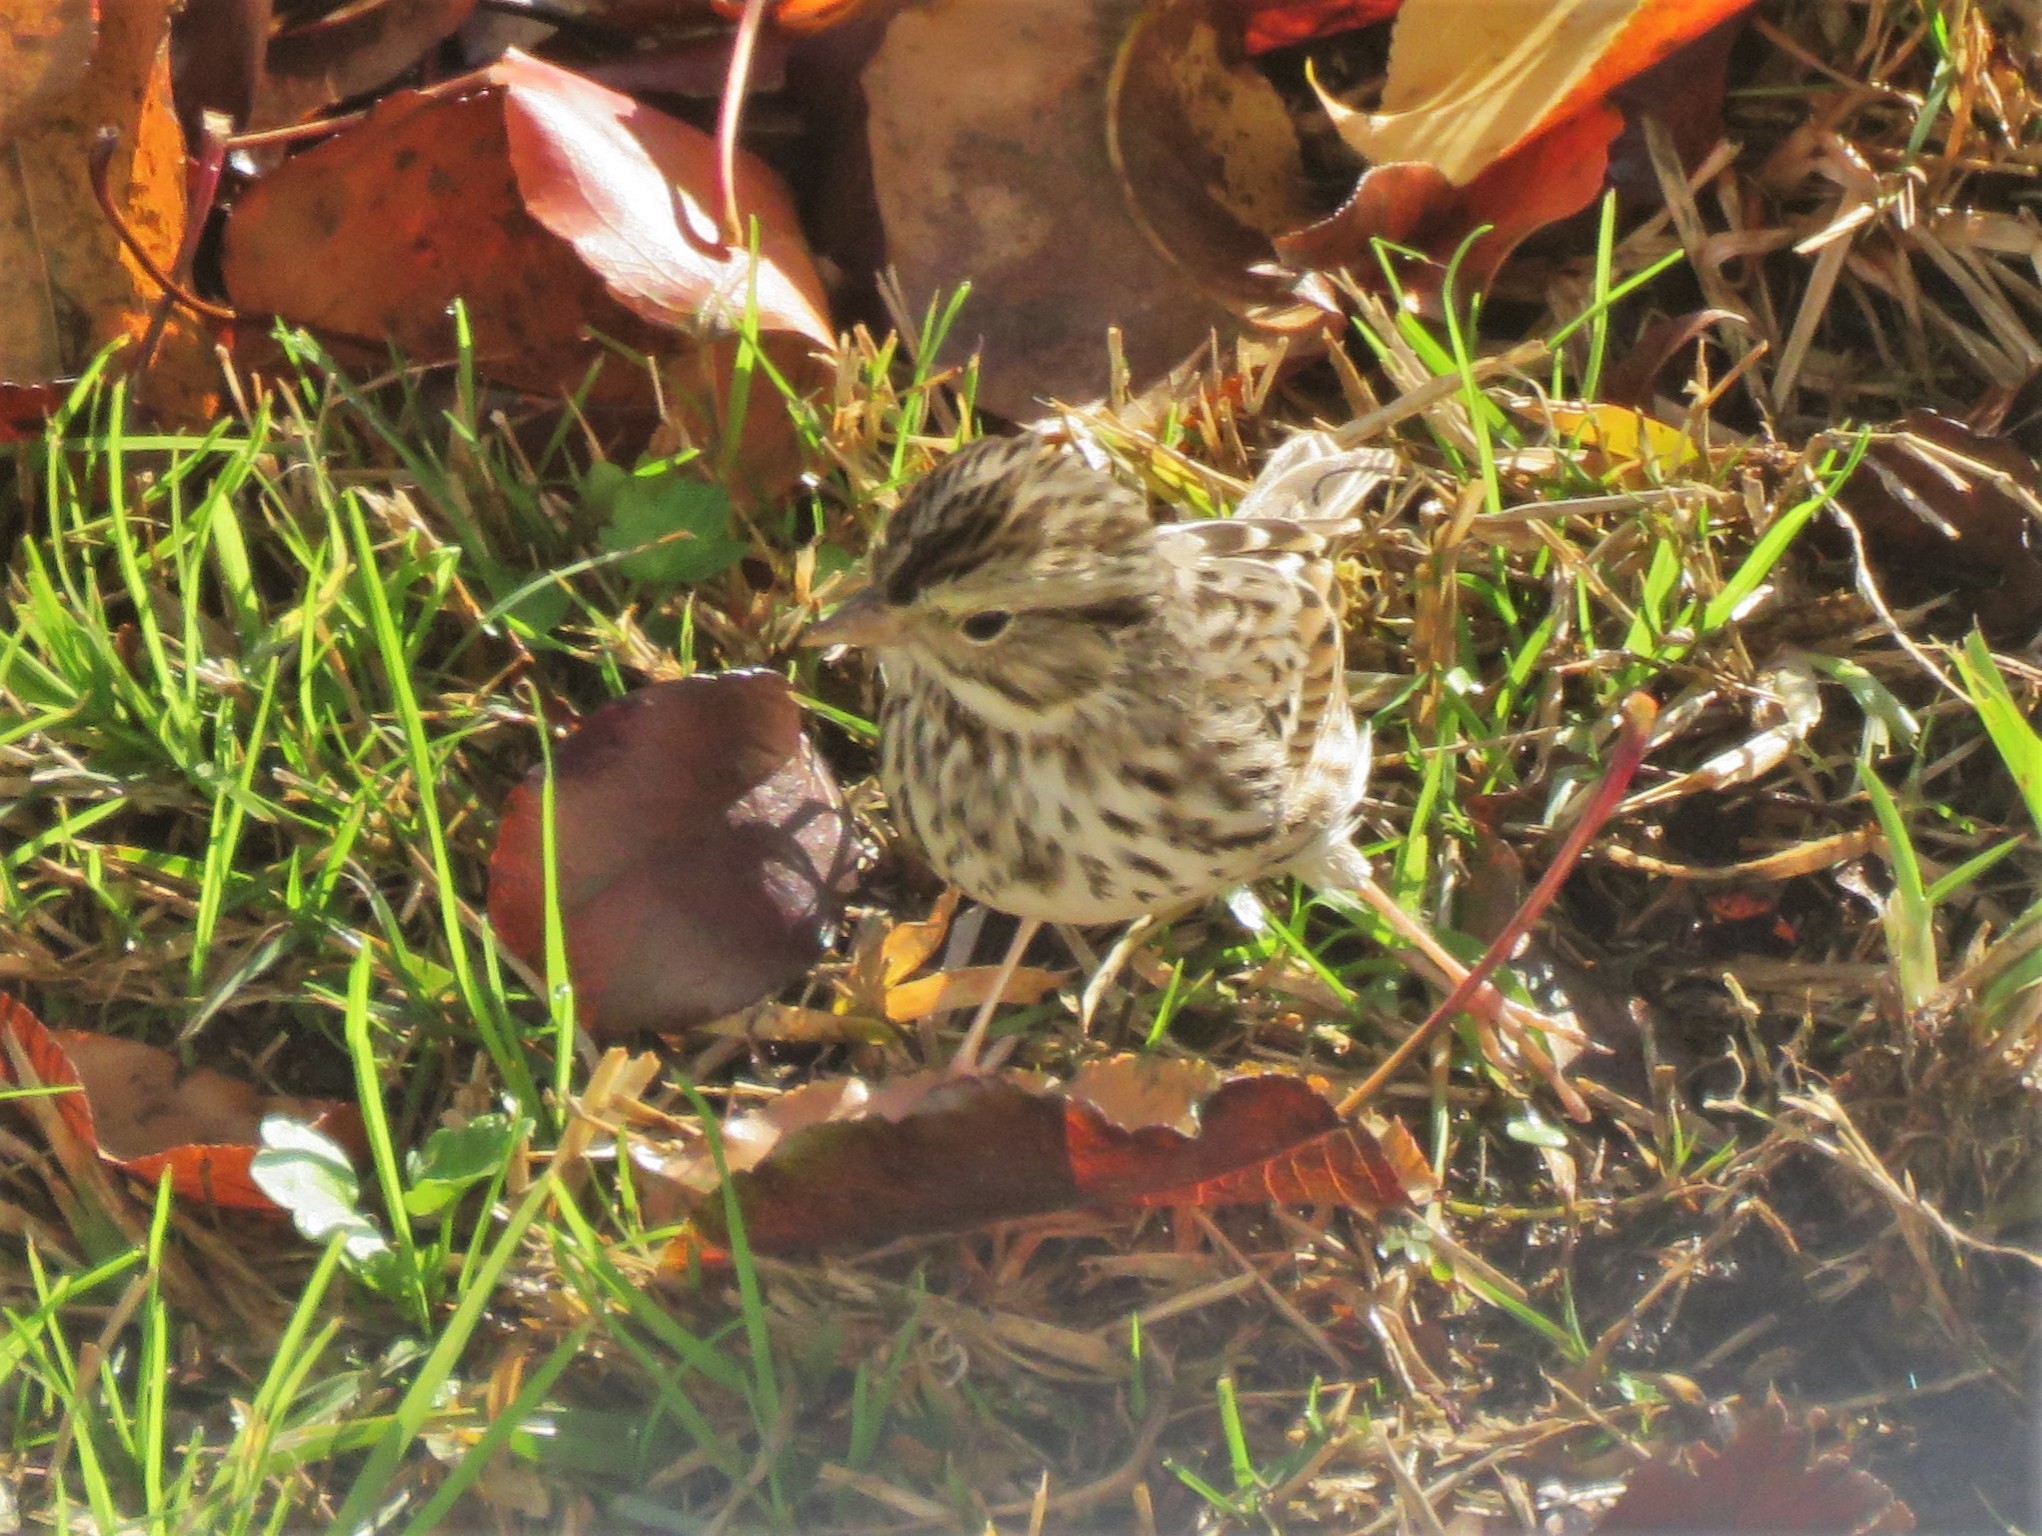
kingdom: Animalia
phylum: Chordata
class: Aves
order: Passeriformes
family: Passerellidae
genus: Passerculus
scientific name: Passerculus sandwichensis
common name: Savannah sparrow
